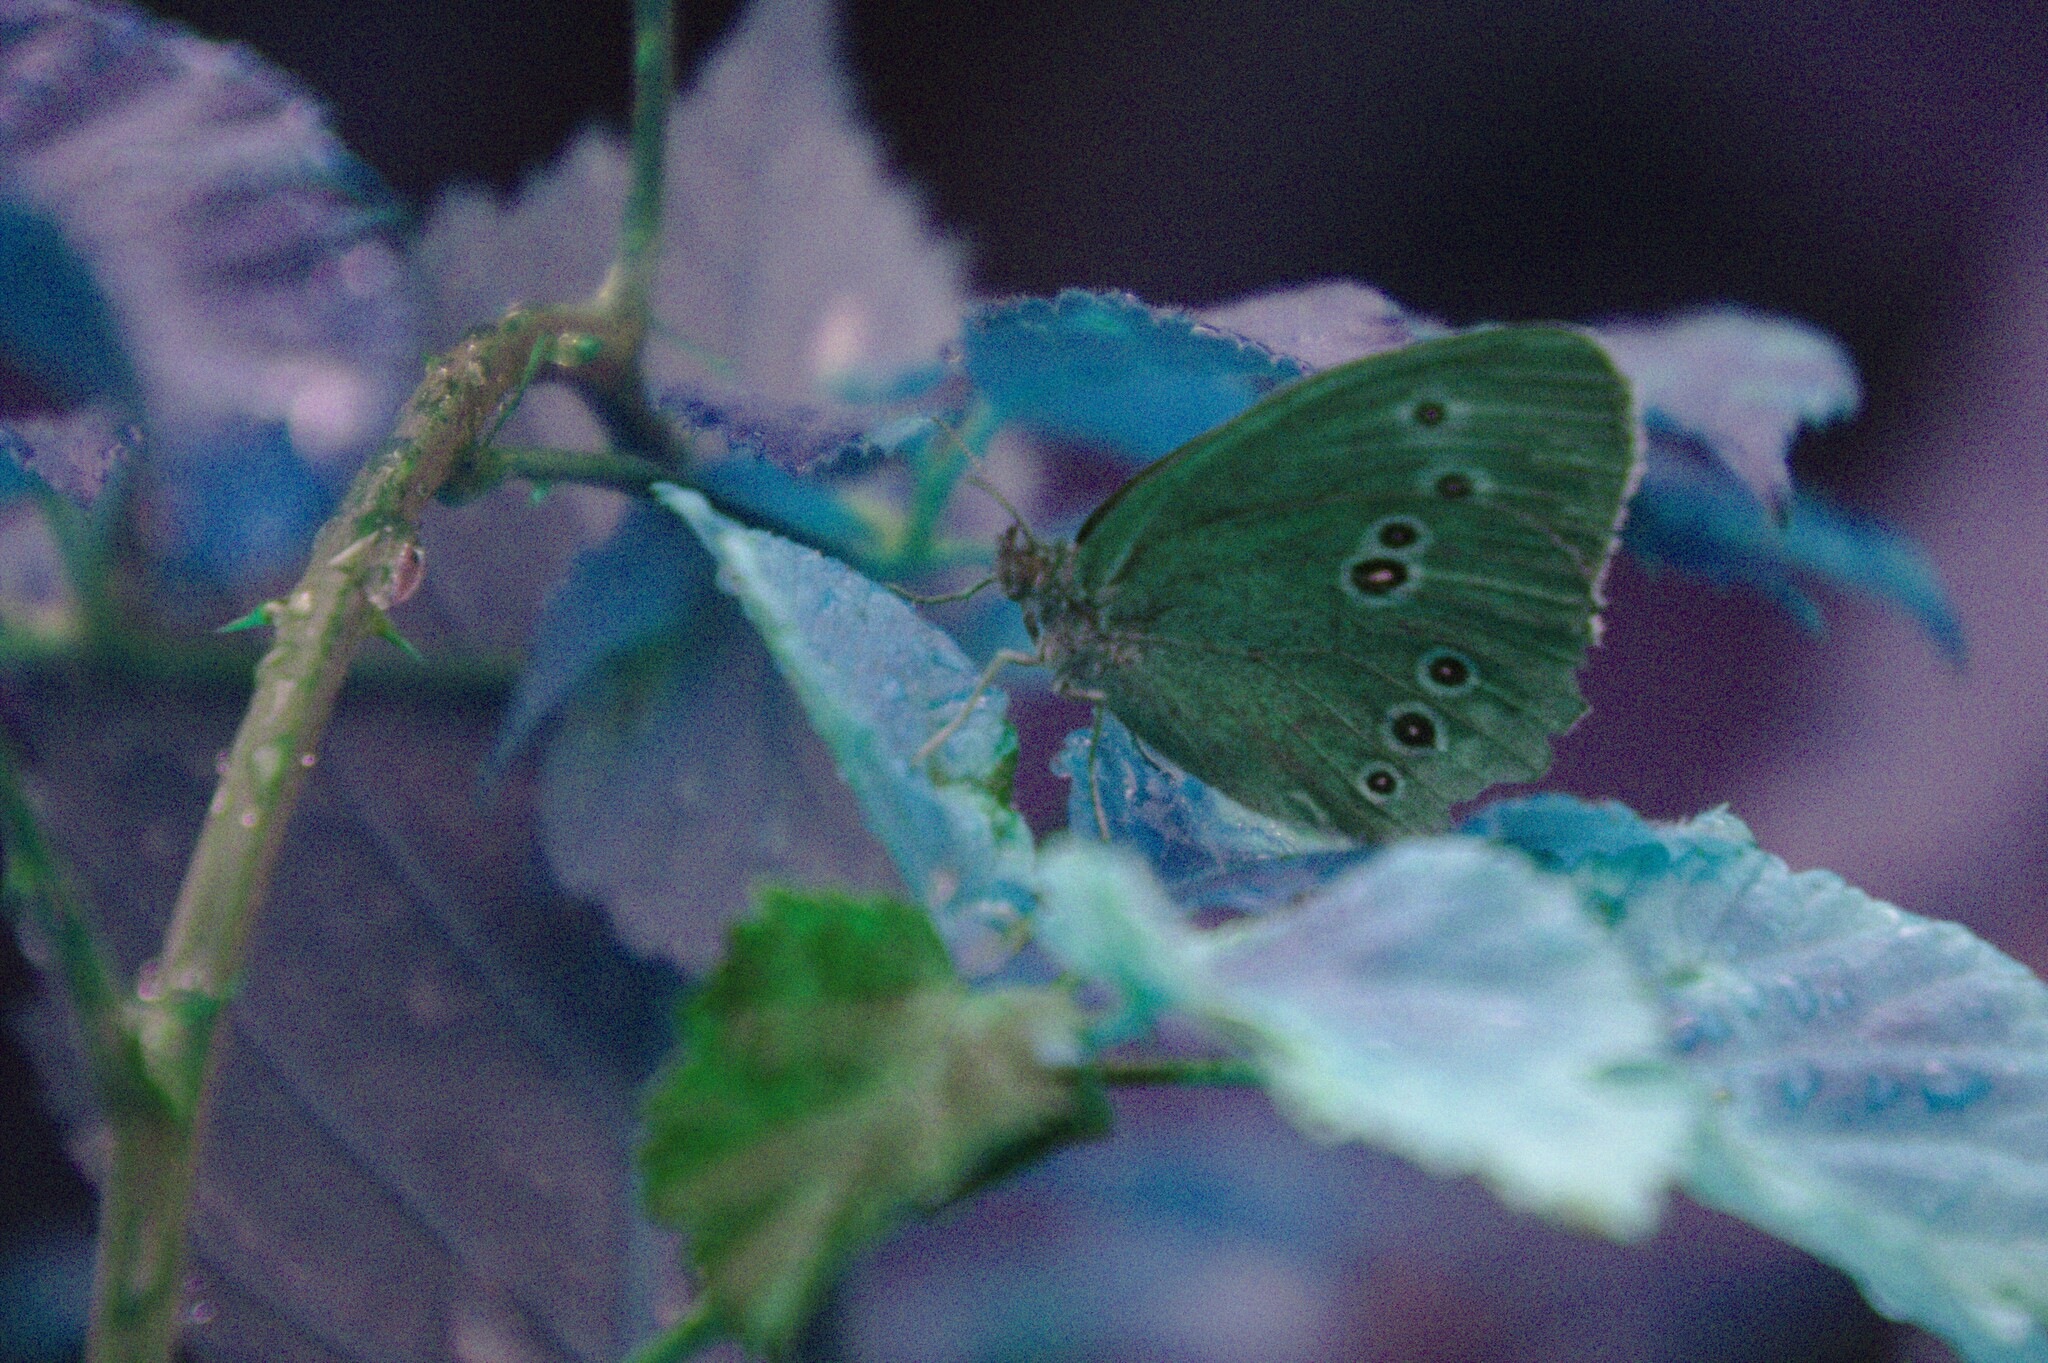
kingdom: Animalia
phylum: Arthropoda
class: Insecta
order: Lepidoptera
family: Nymphalidae
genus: Aphantopus
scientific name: Aphantopus hyperantus
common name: Ringlet
